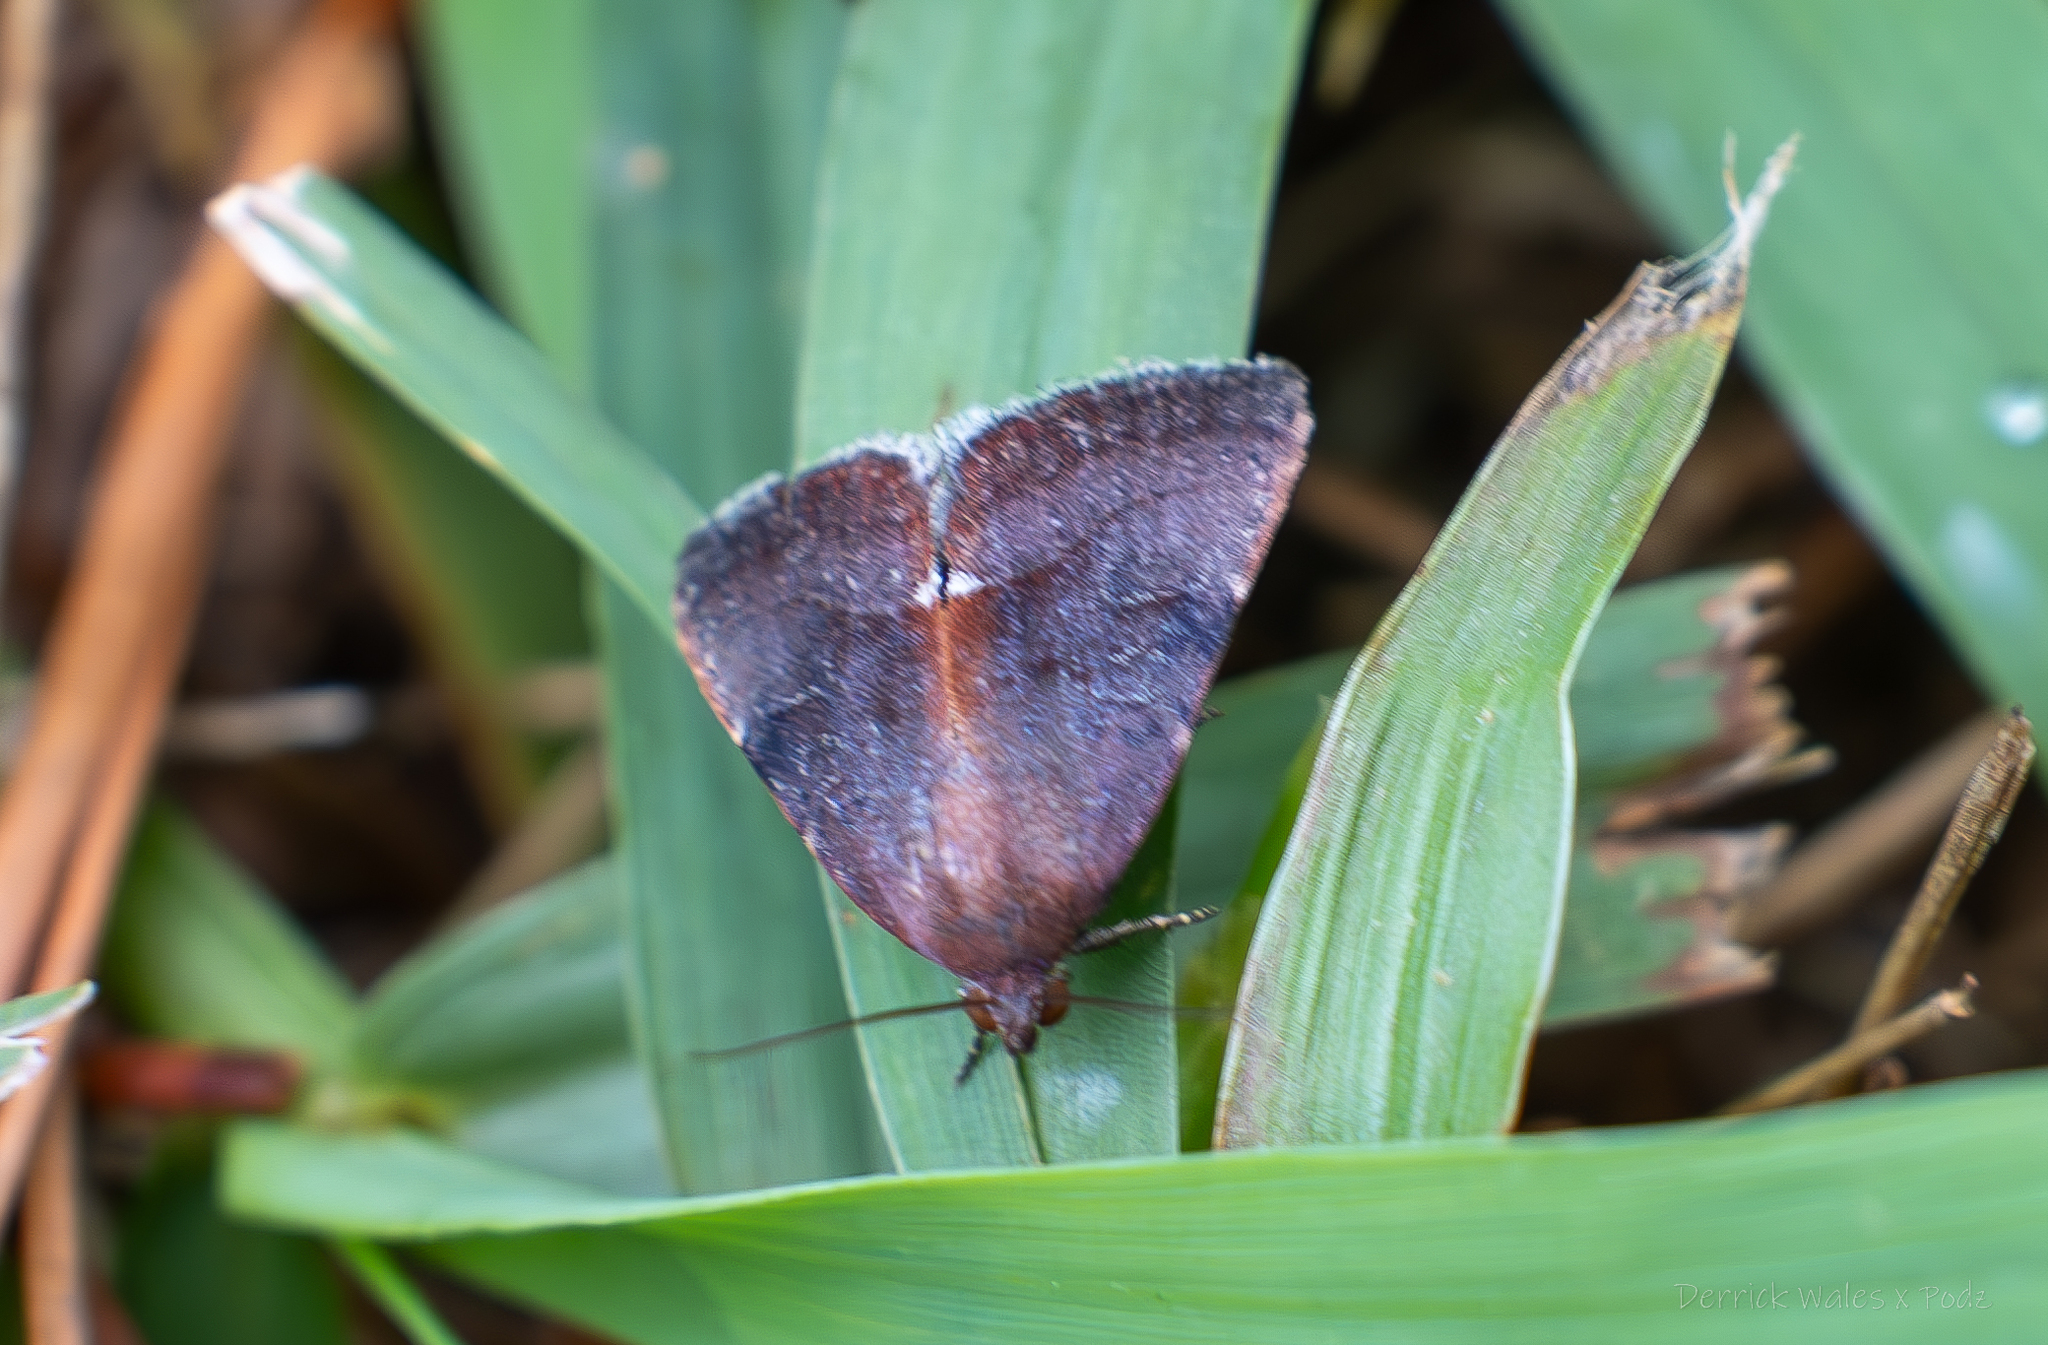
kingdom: Animalia
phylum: Arthropoda
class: Insecta
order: Lepidoptera
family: Noctuidae
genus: Galgula
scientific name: Galgula partita
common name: Wedgeling
